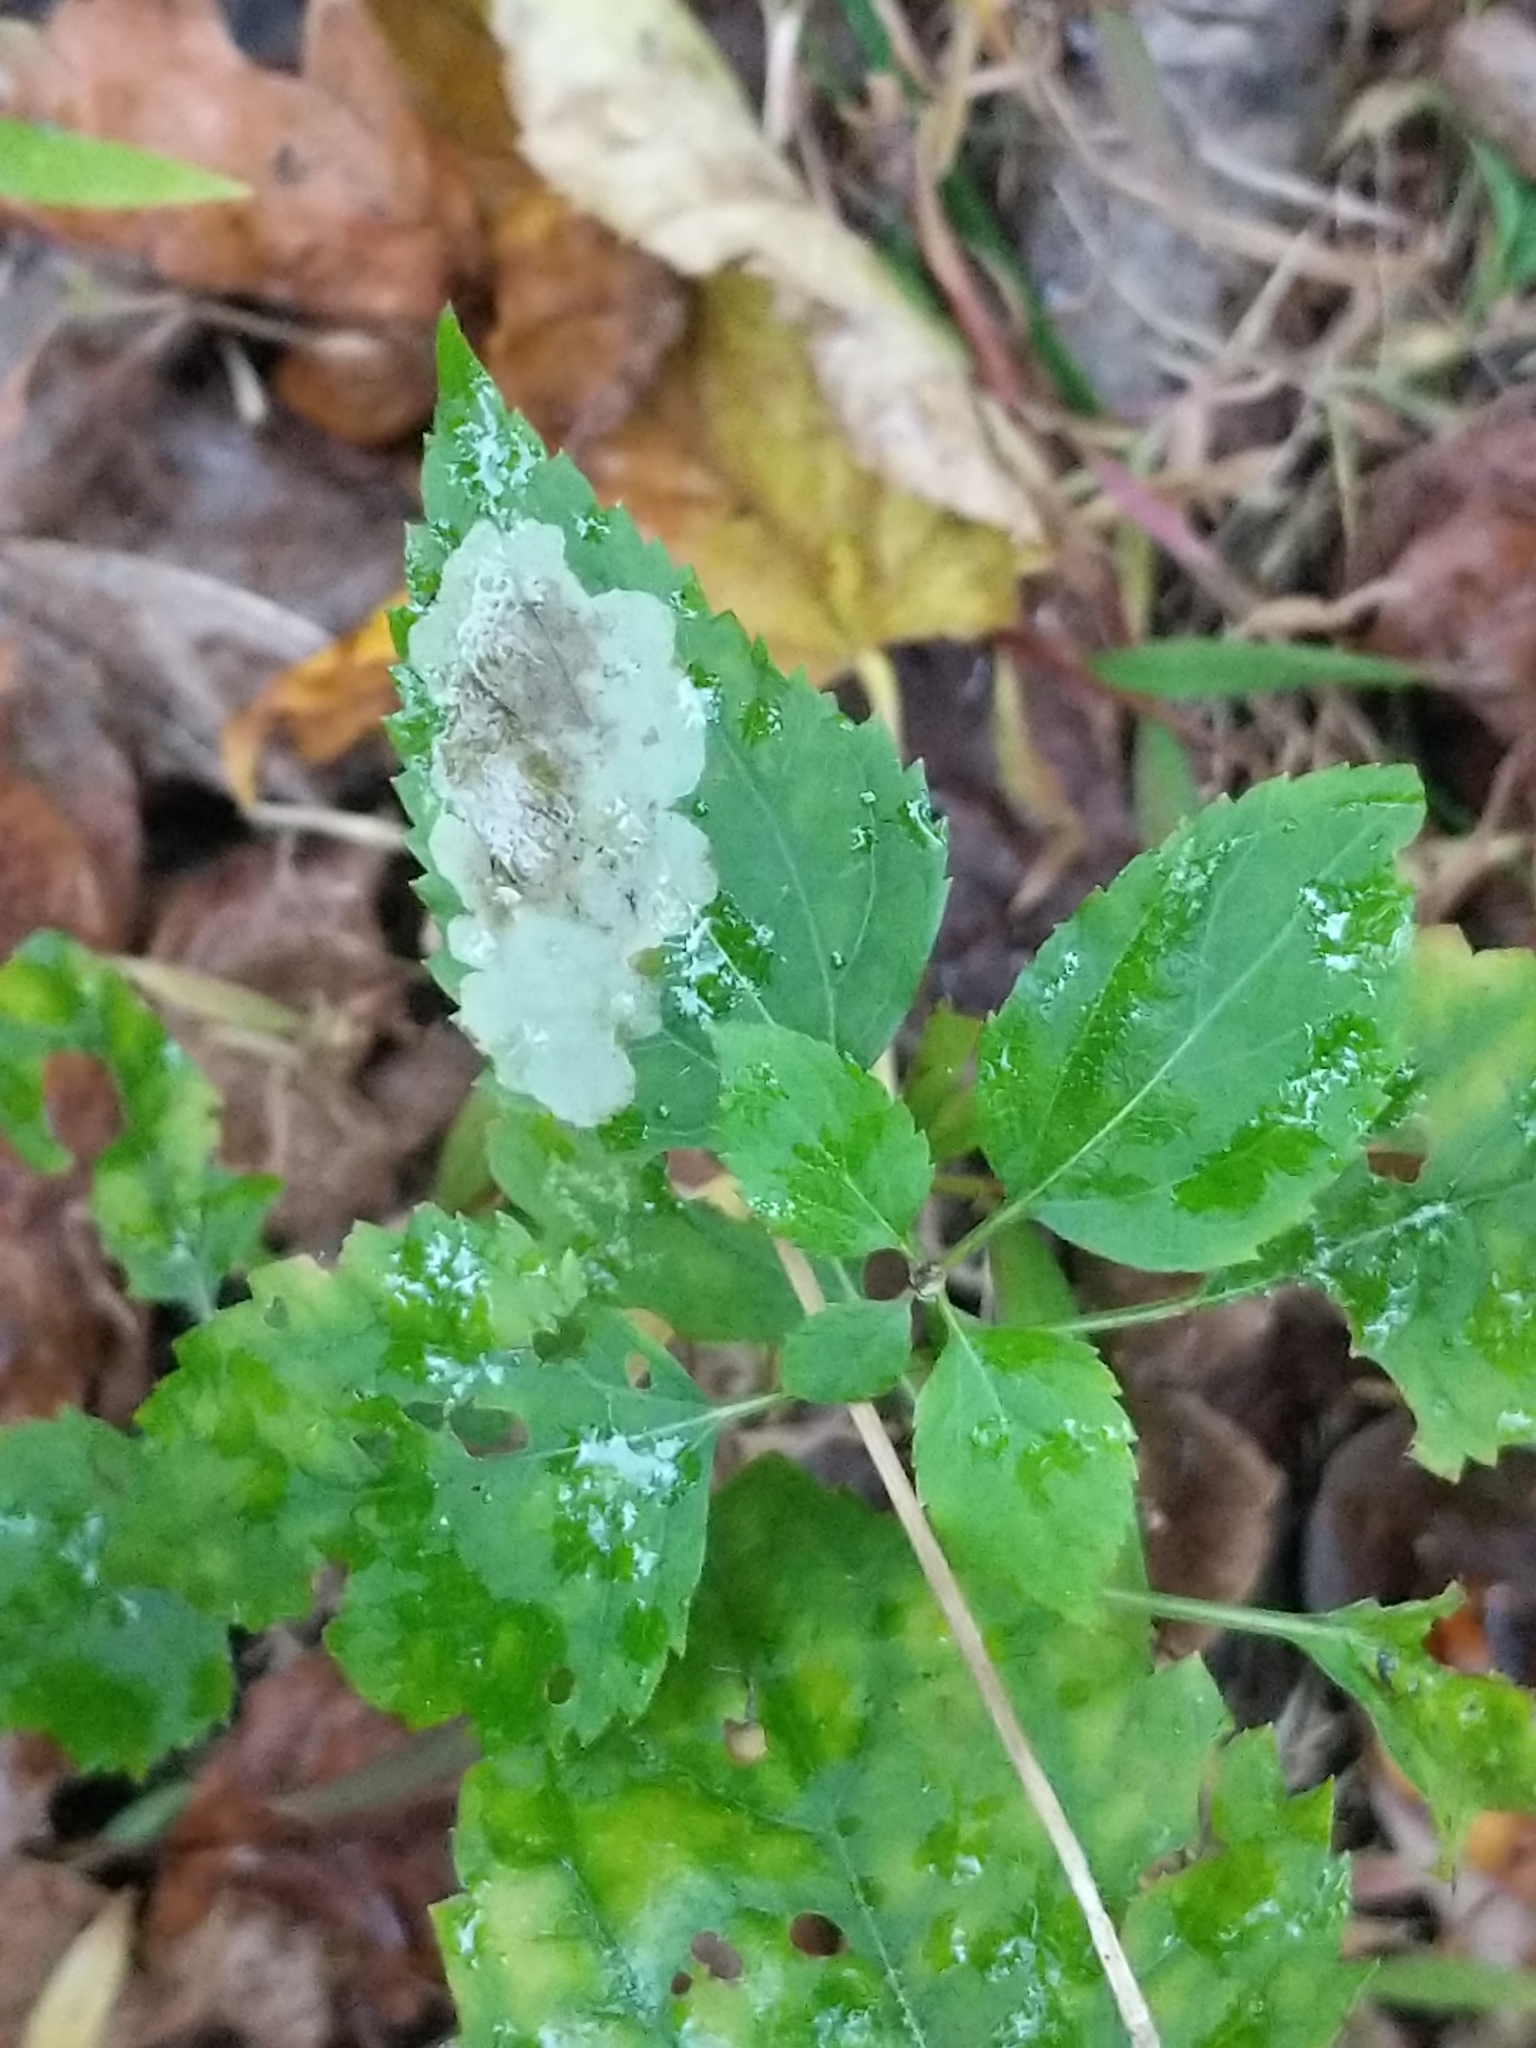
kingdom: Plantae
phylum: Tracheophyta
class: Magnoliopsida
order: Asterales
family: Asteraceae
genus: Ageratina
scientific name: Ageratina altissima
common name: White snakeroot
